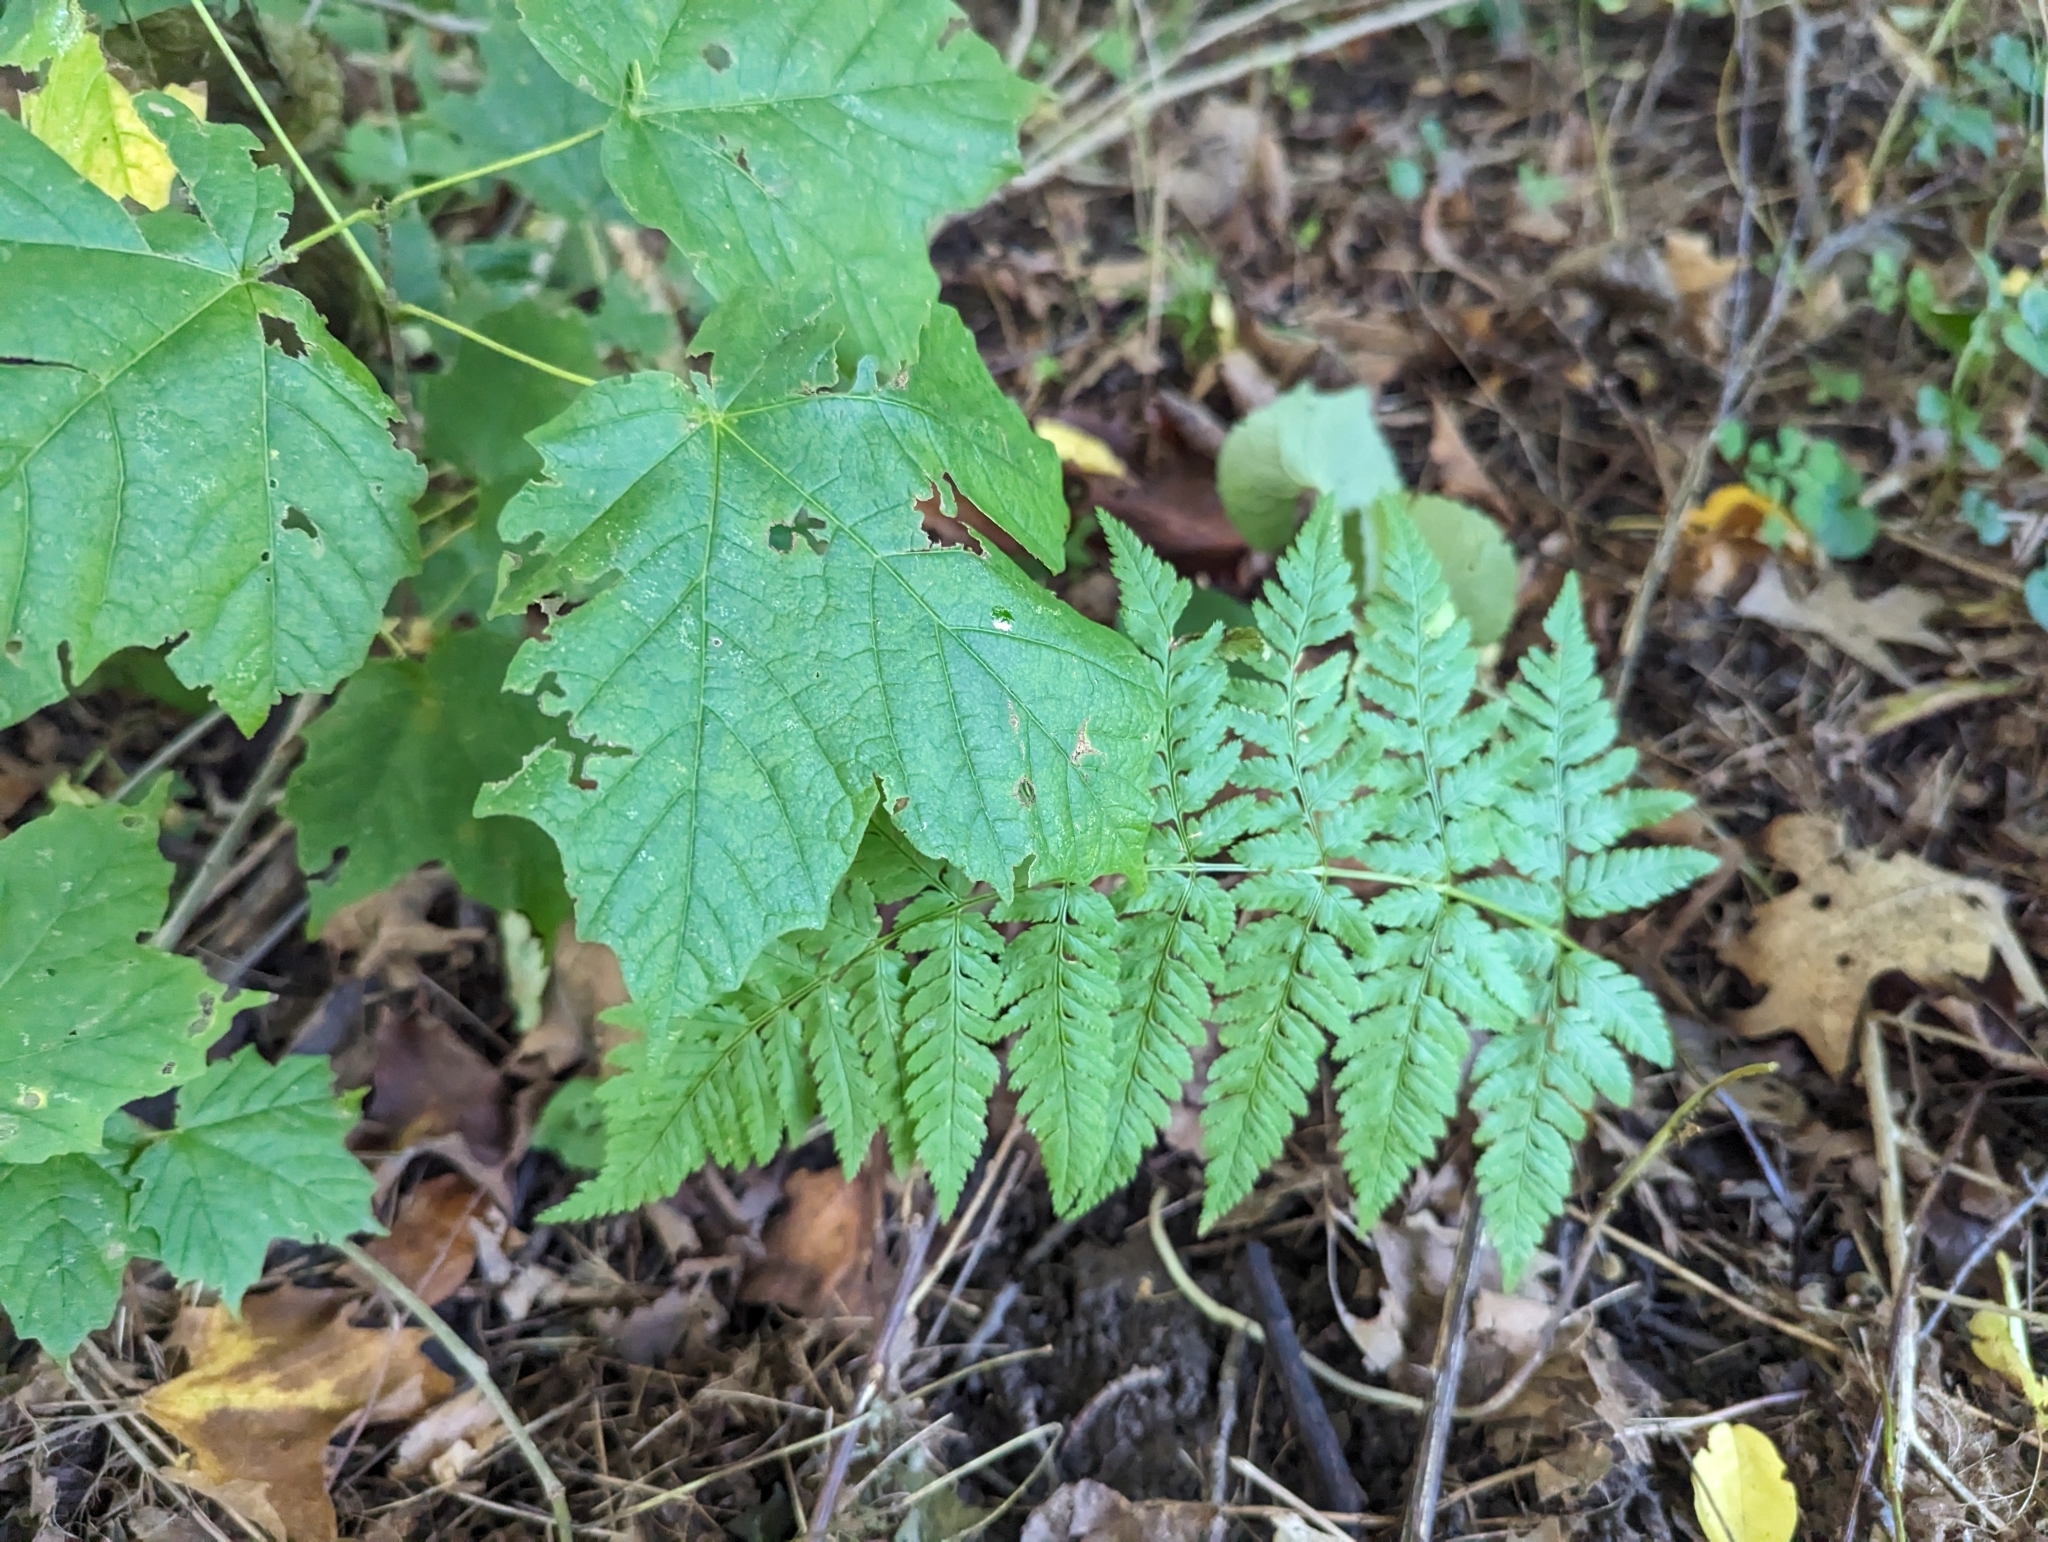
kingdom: Plantae
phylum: Tracheophyta
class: Polypodiopsida
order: Polypodiales
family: Dryopteridaceae
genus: Dryopteris
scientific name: Dryopteris carthusiana
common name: Narrow buckler-fern
